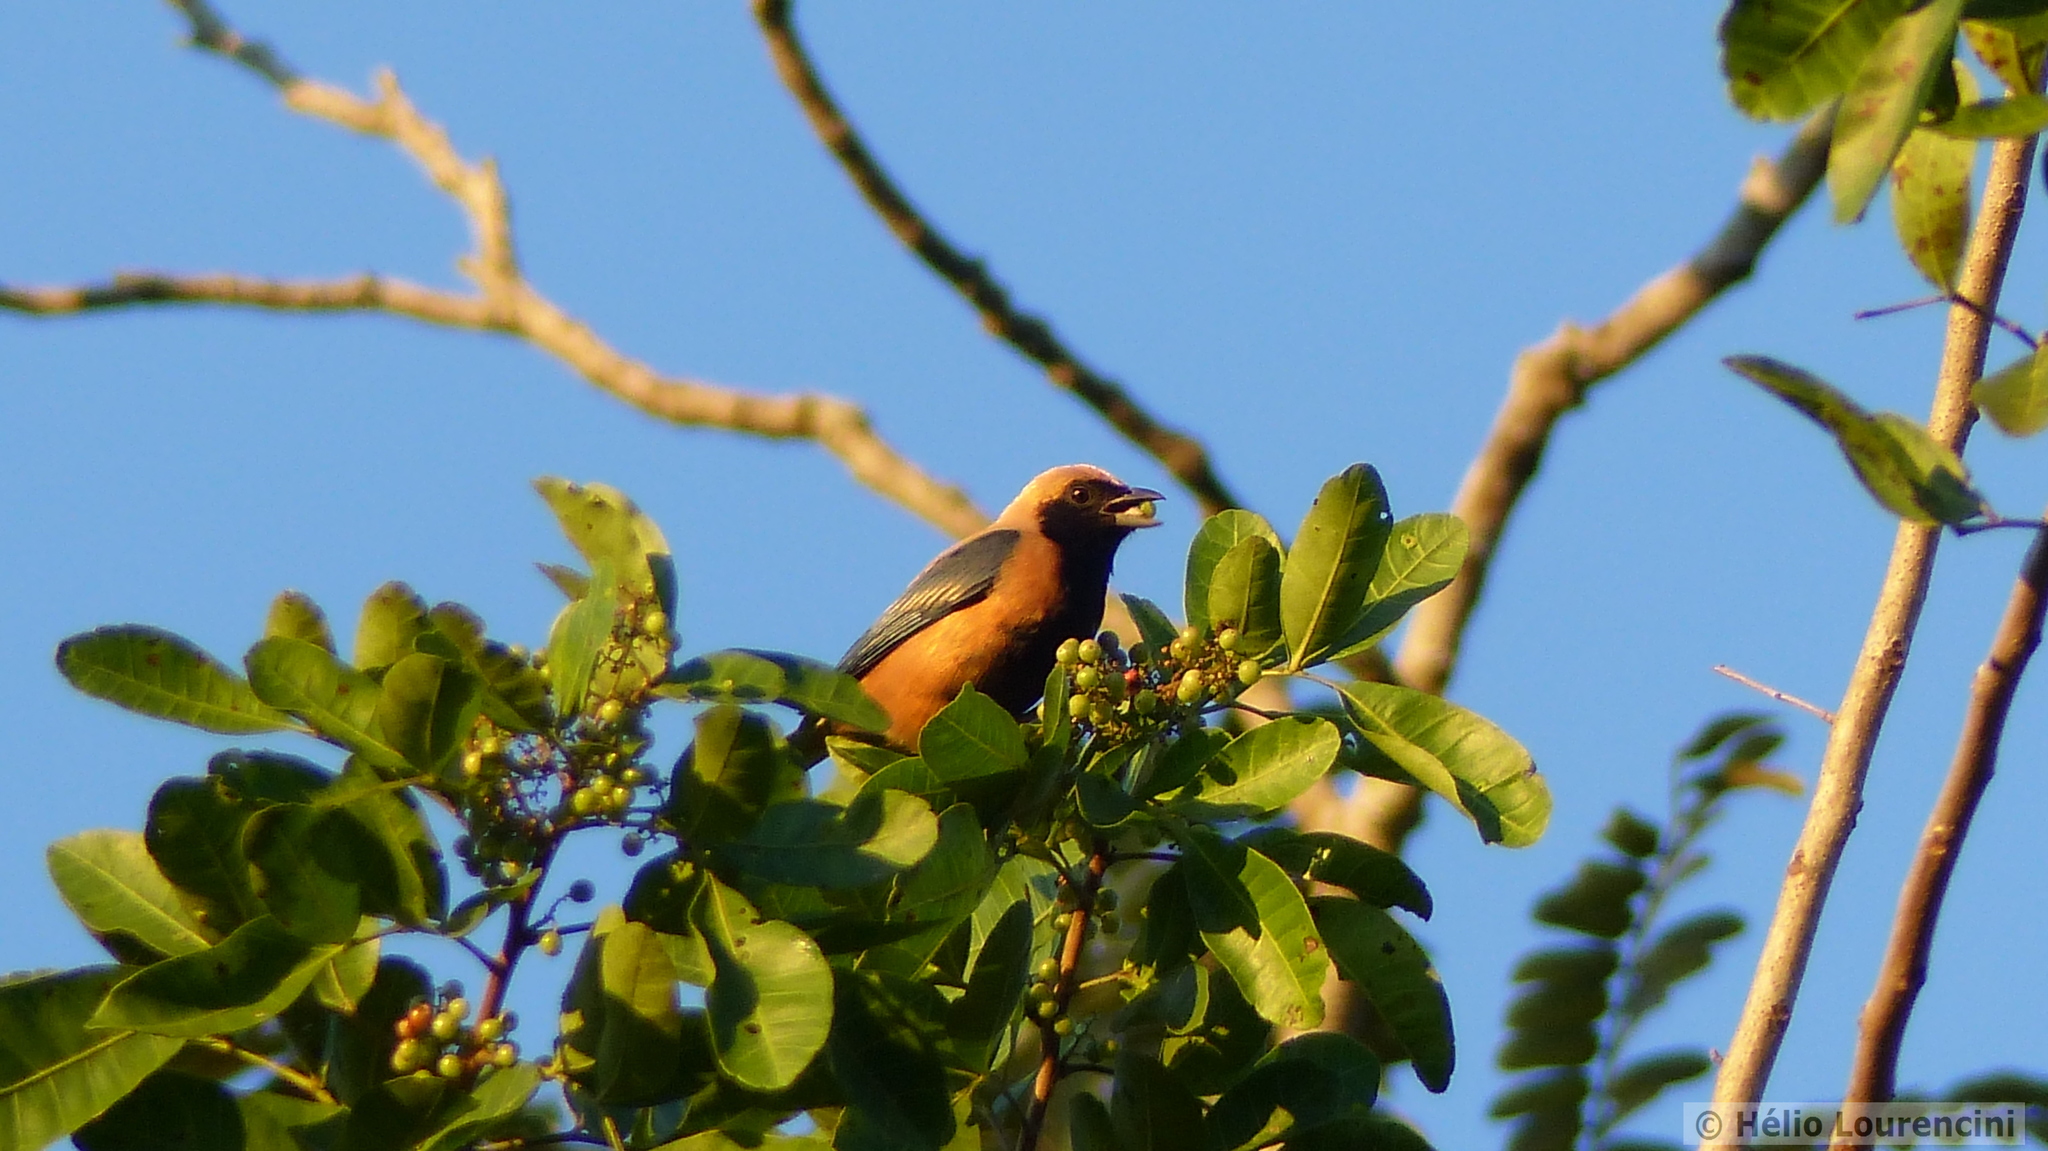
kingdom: Animalia
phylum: Chordata
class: Aves
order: Passeriformes
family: Thraupidae
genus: Stilpnia
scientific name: Stilpnia cayana
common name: Burnished-buff tanager
